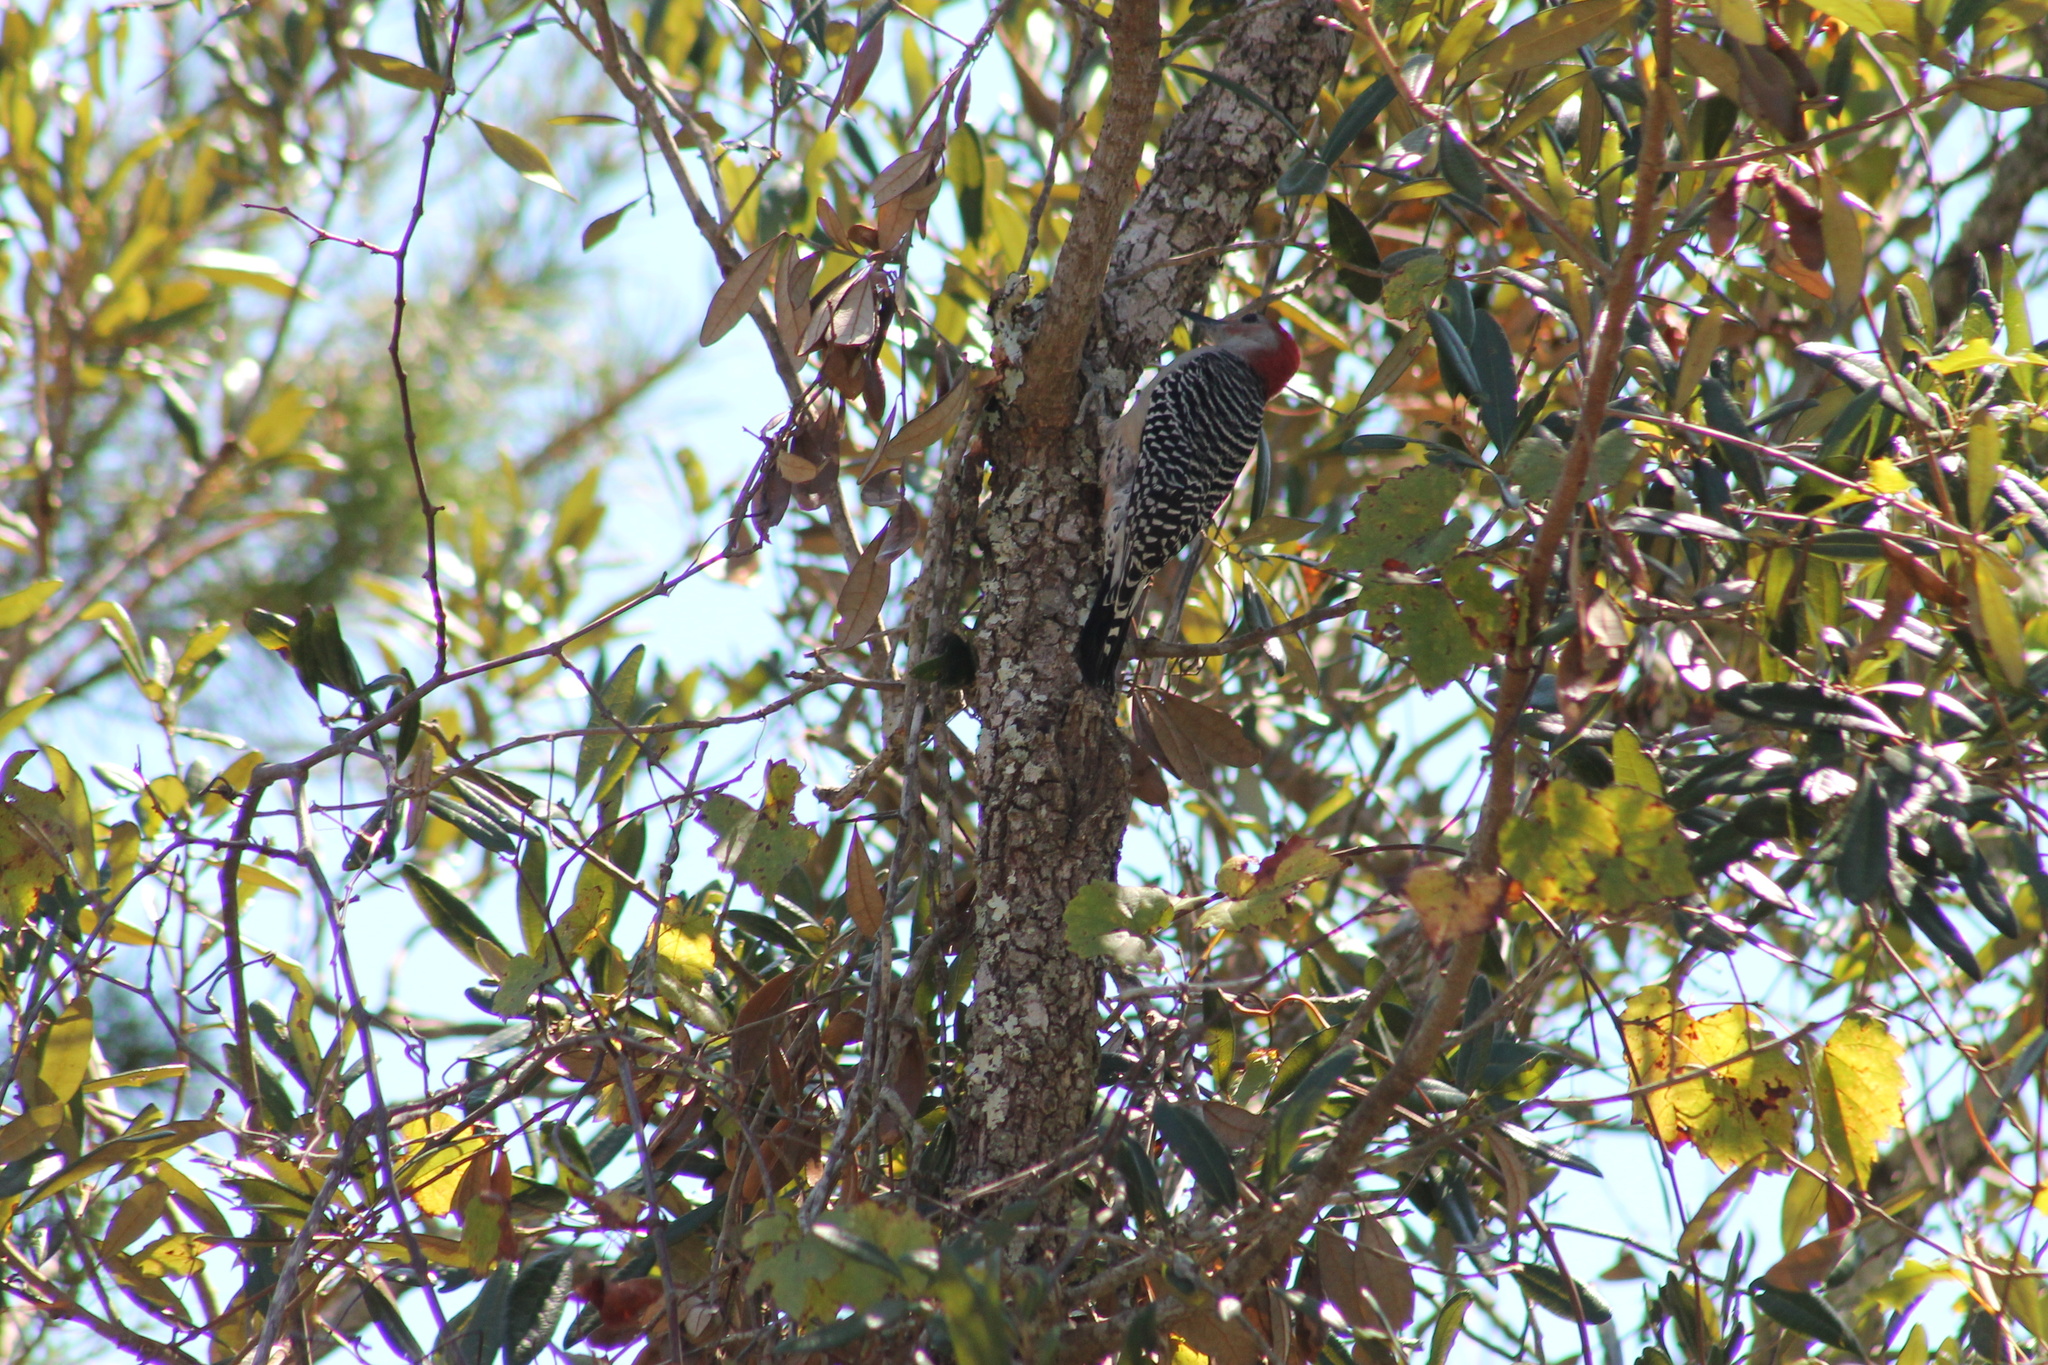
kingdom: Animalia
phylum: Chordata
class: Aves
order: Piciformes
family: Picidae
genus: Melanerpes
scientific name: Melanerpes carolinus
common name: Red-bellied woodpecker
